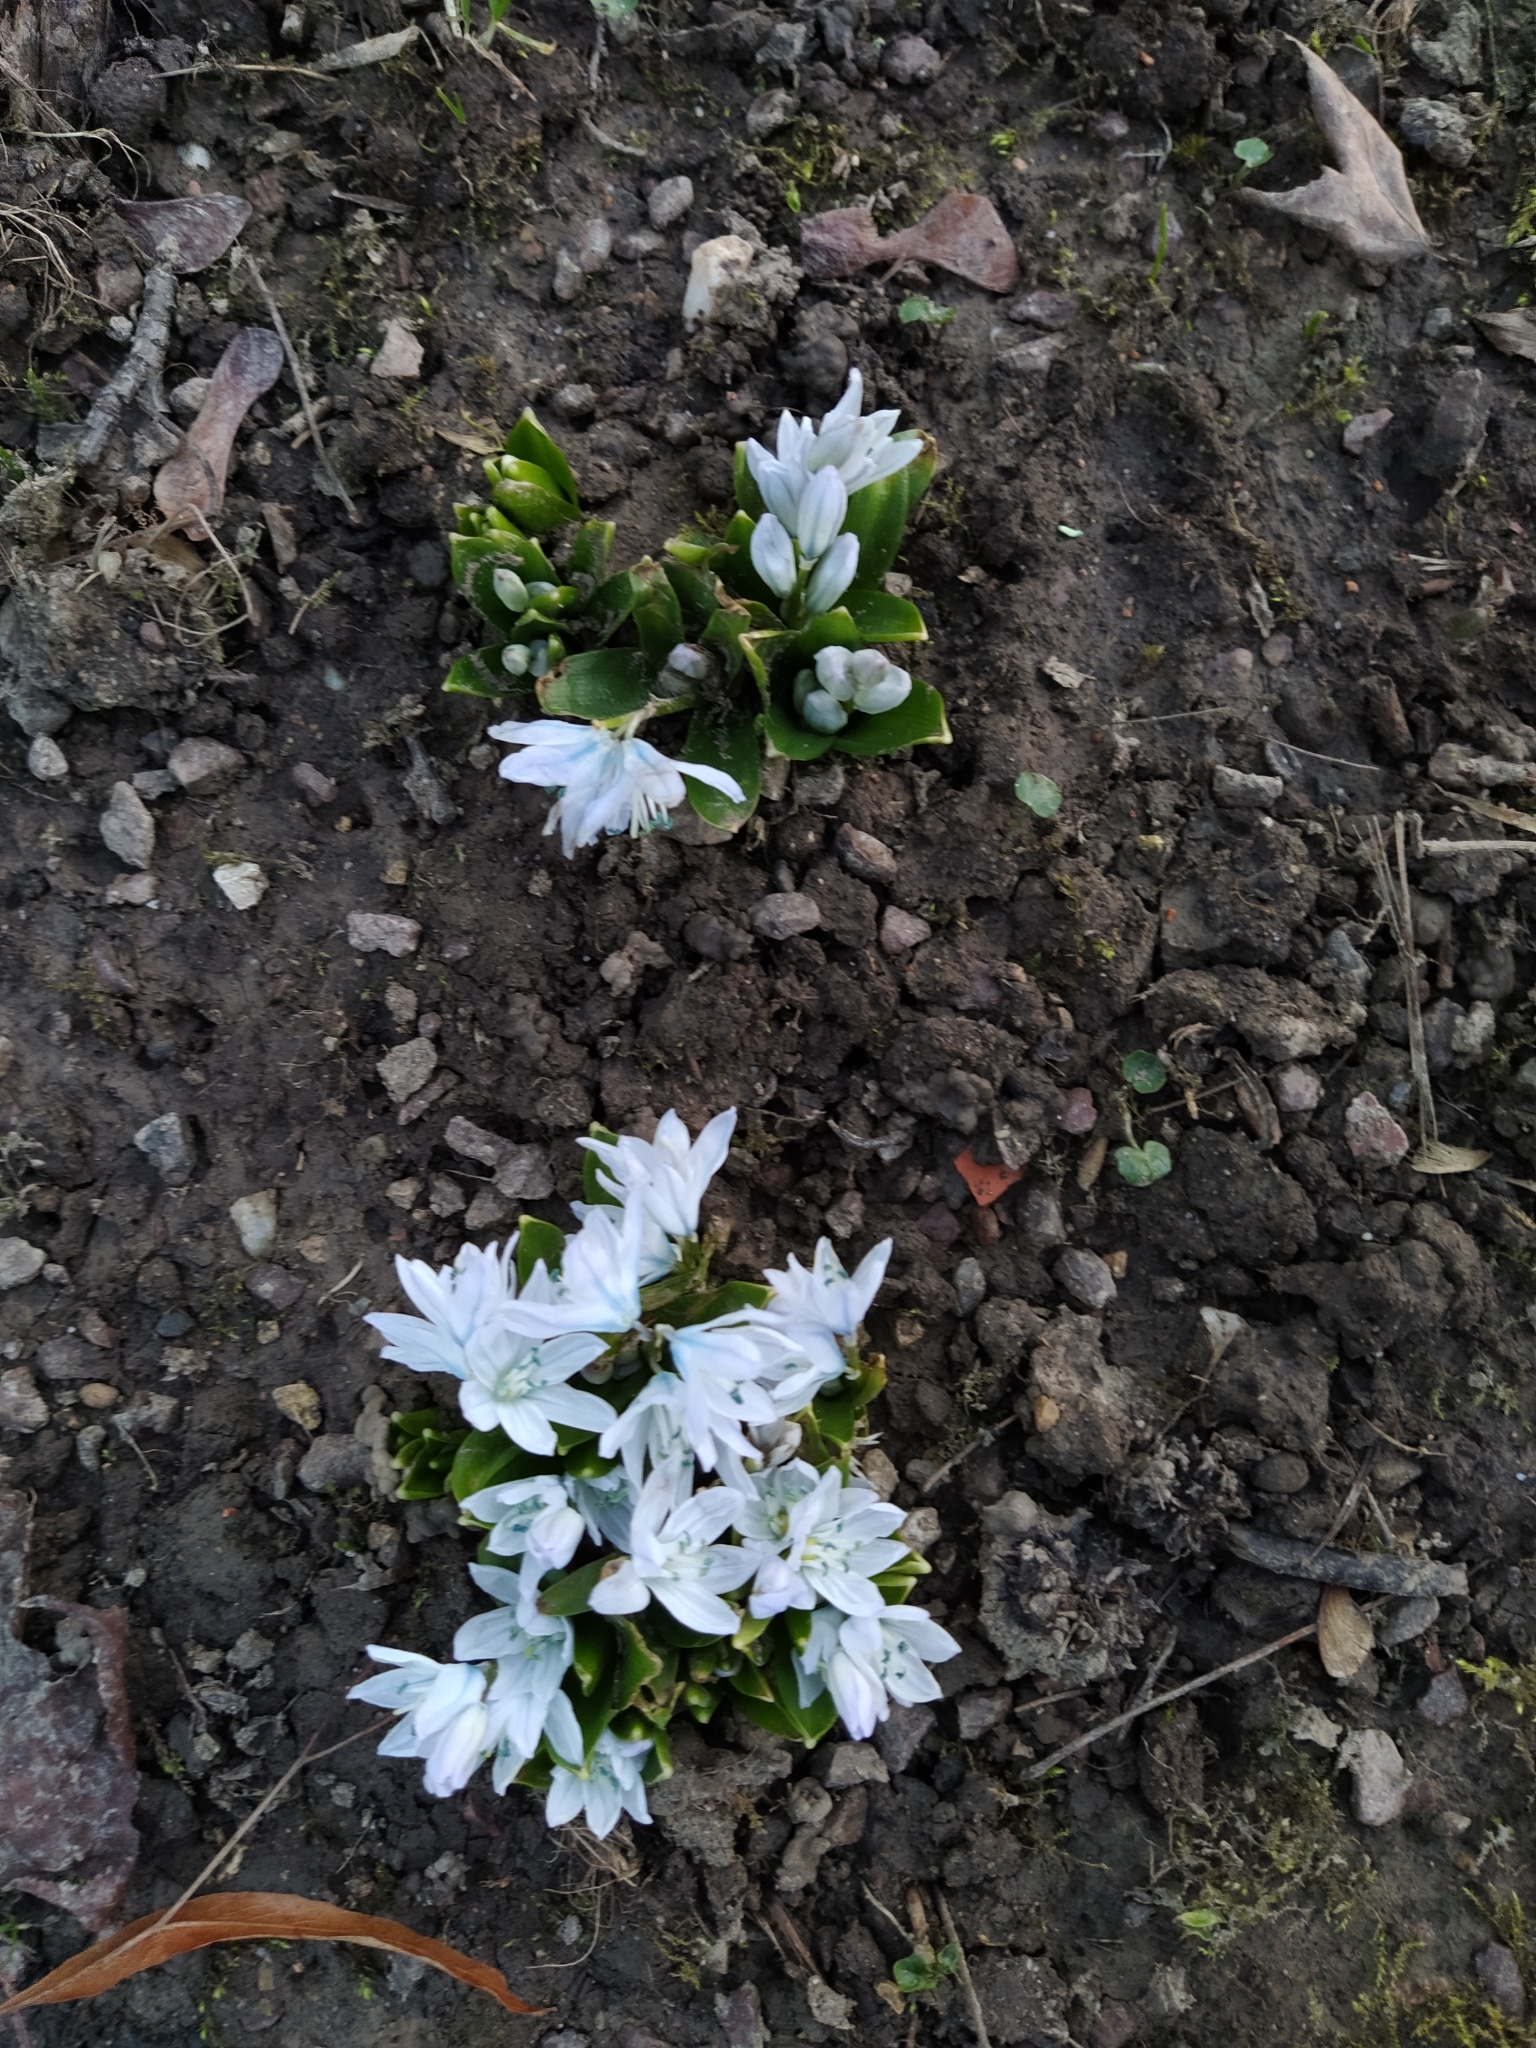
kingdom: Plantae
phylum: Tracheophyta
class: Liliopsida
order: Asparagales
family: Asparagaceae
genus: Scilla
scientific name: Scilla mischtschenkoana
